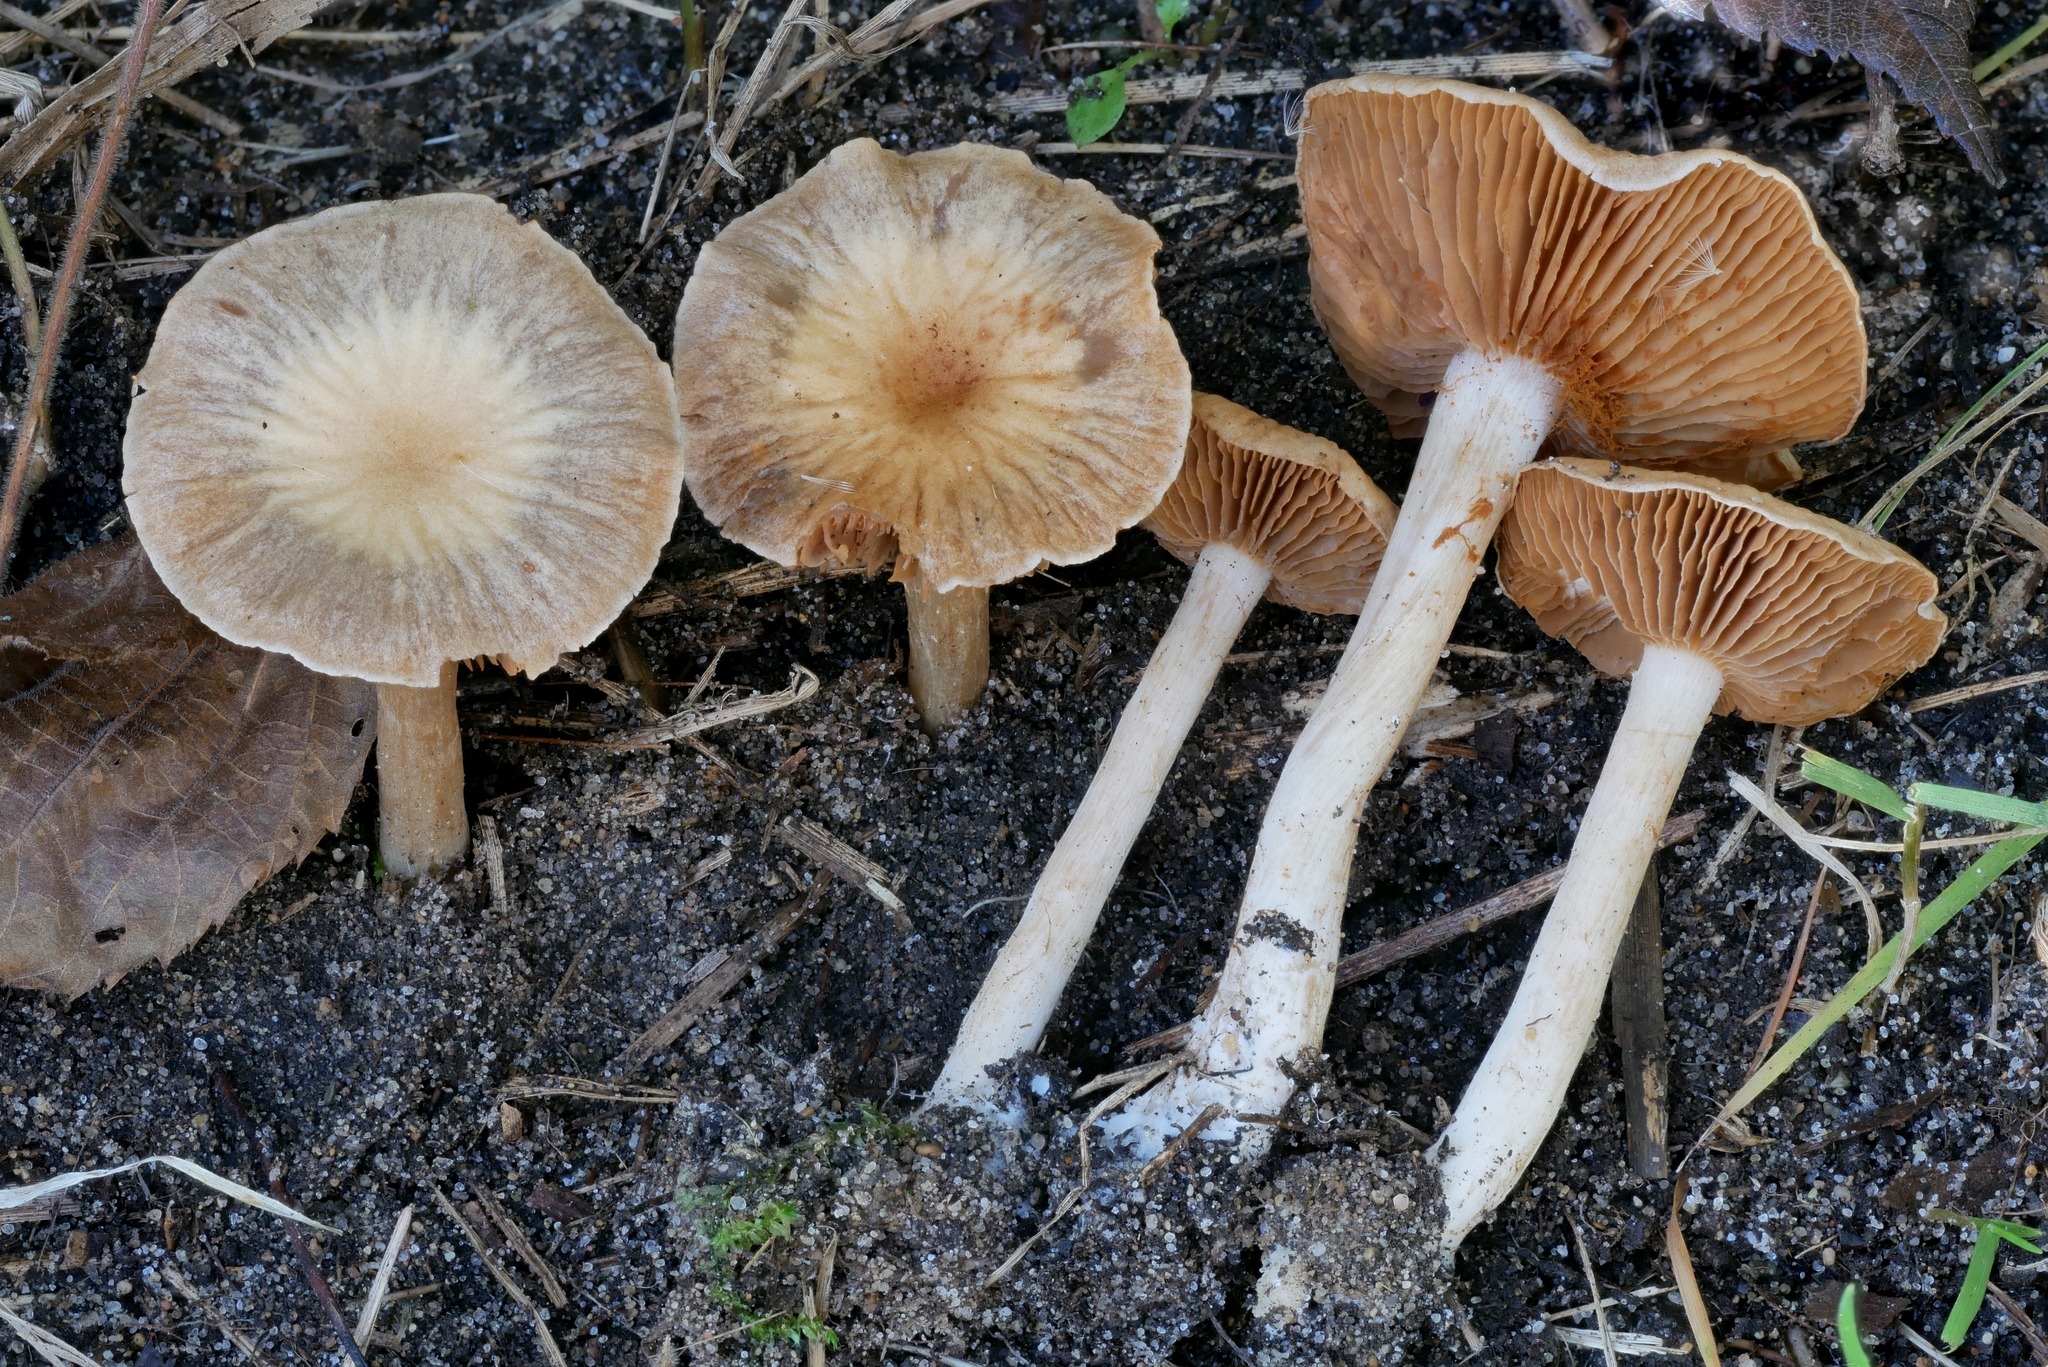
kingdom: Fungi
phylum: Basidiomycota
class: Agaricomycetes
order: Agaricales
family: Cortinariaceae
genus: Cortinarius
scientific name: Cortinarius albocyaneus
